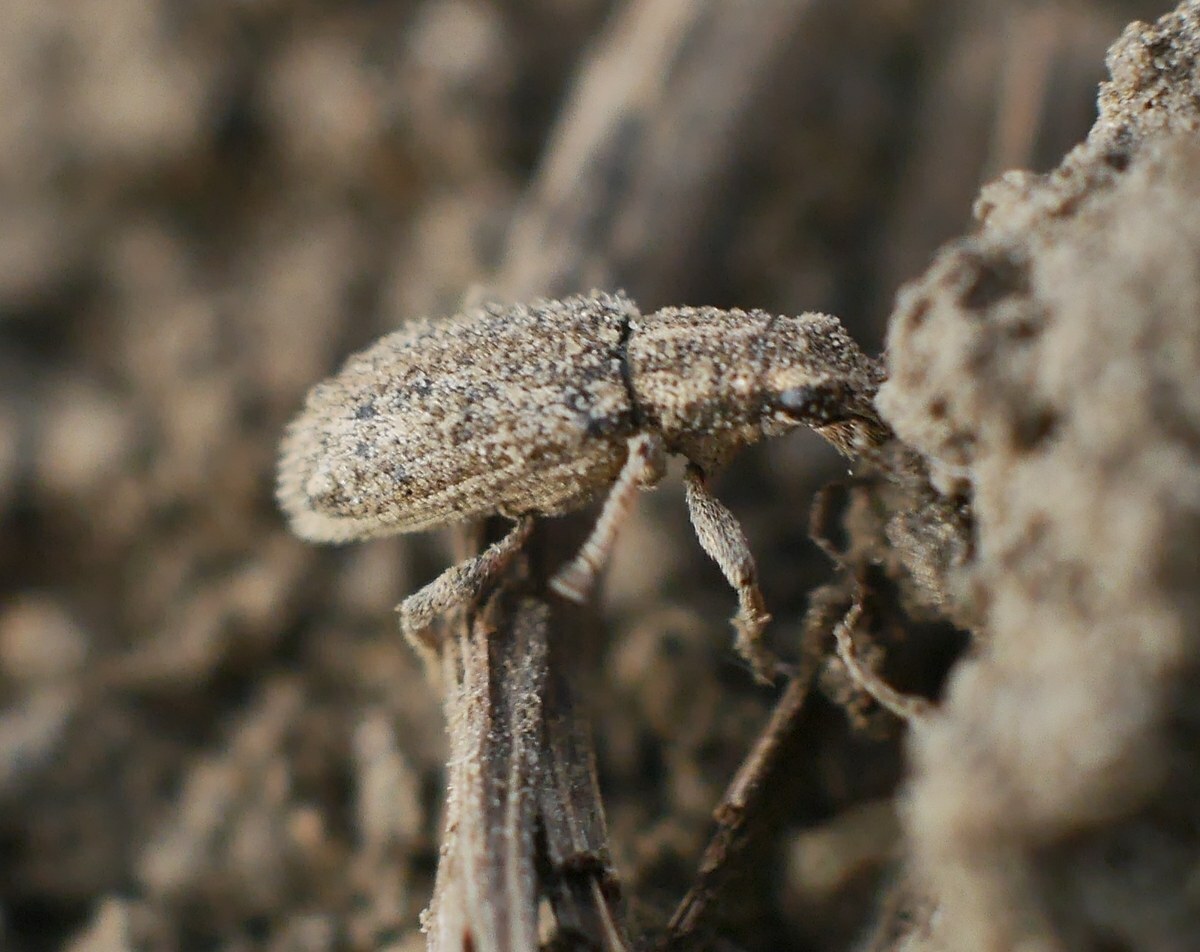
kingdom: Animalia
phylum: Arthropoda
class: Insecta
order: Coleoptera
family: Curculionidae
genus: Sitona
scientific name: Sitona macularius
